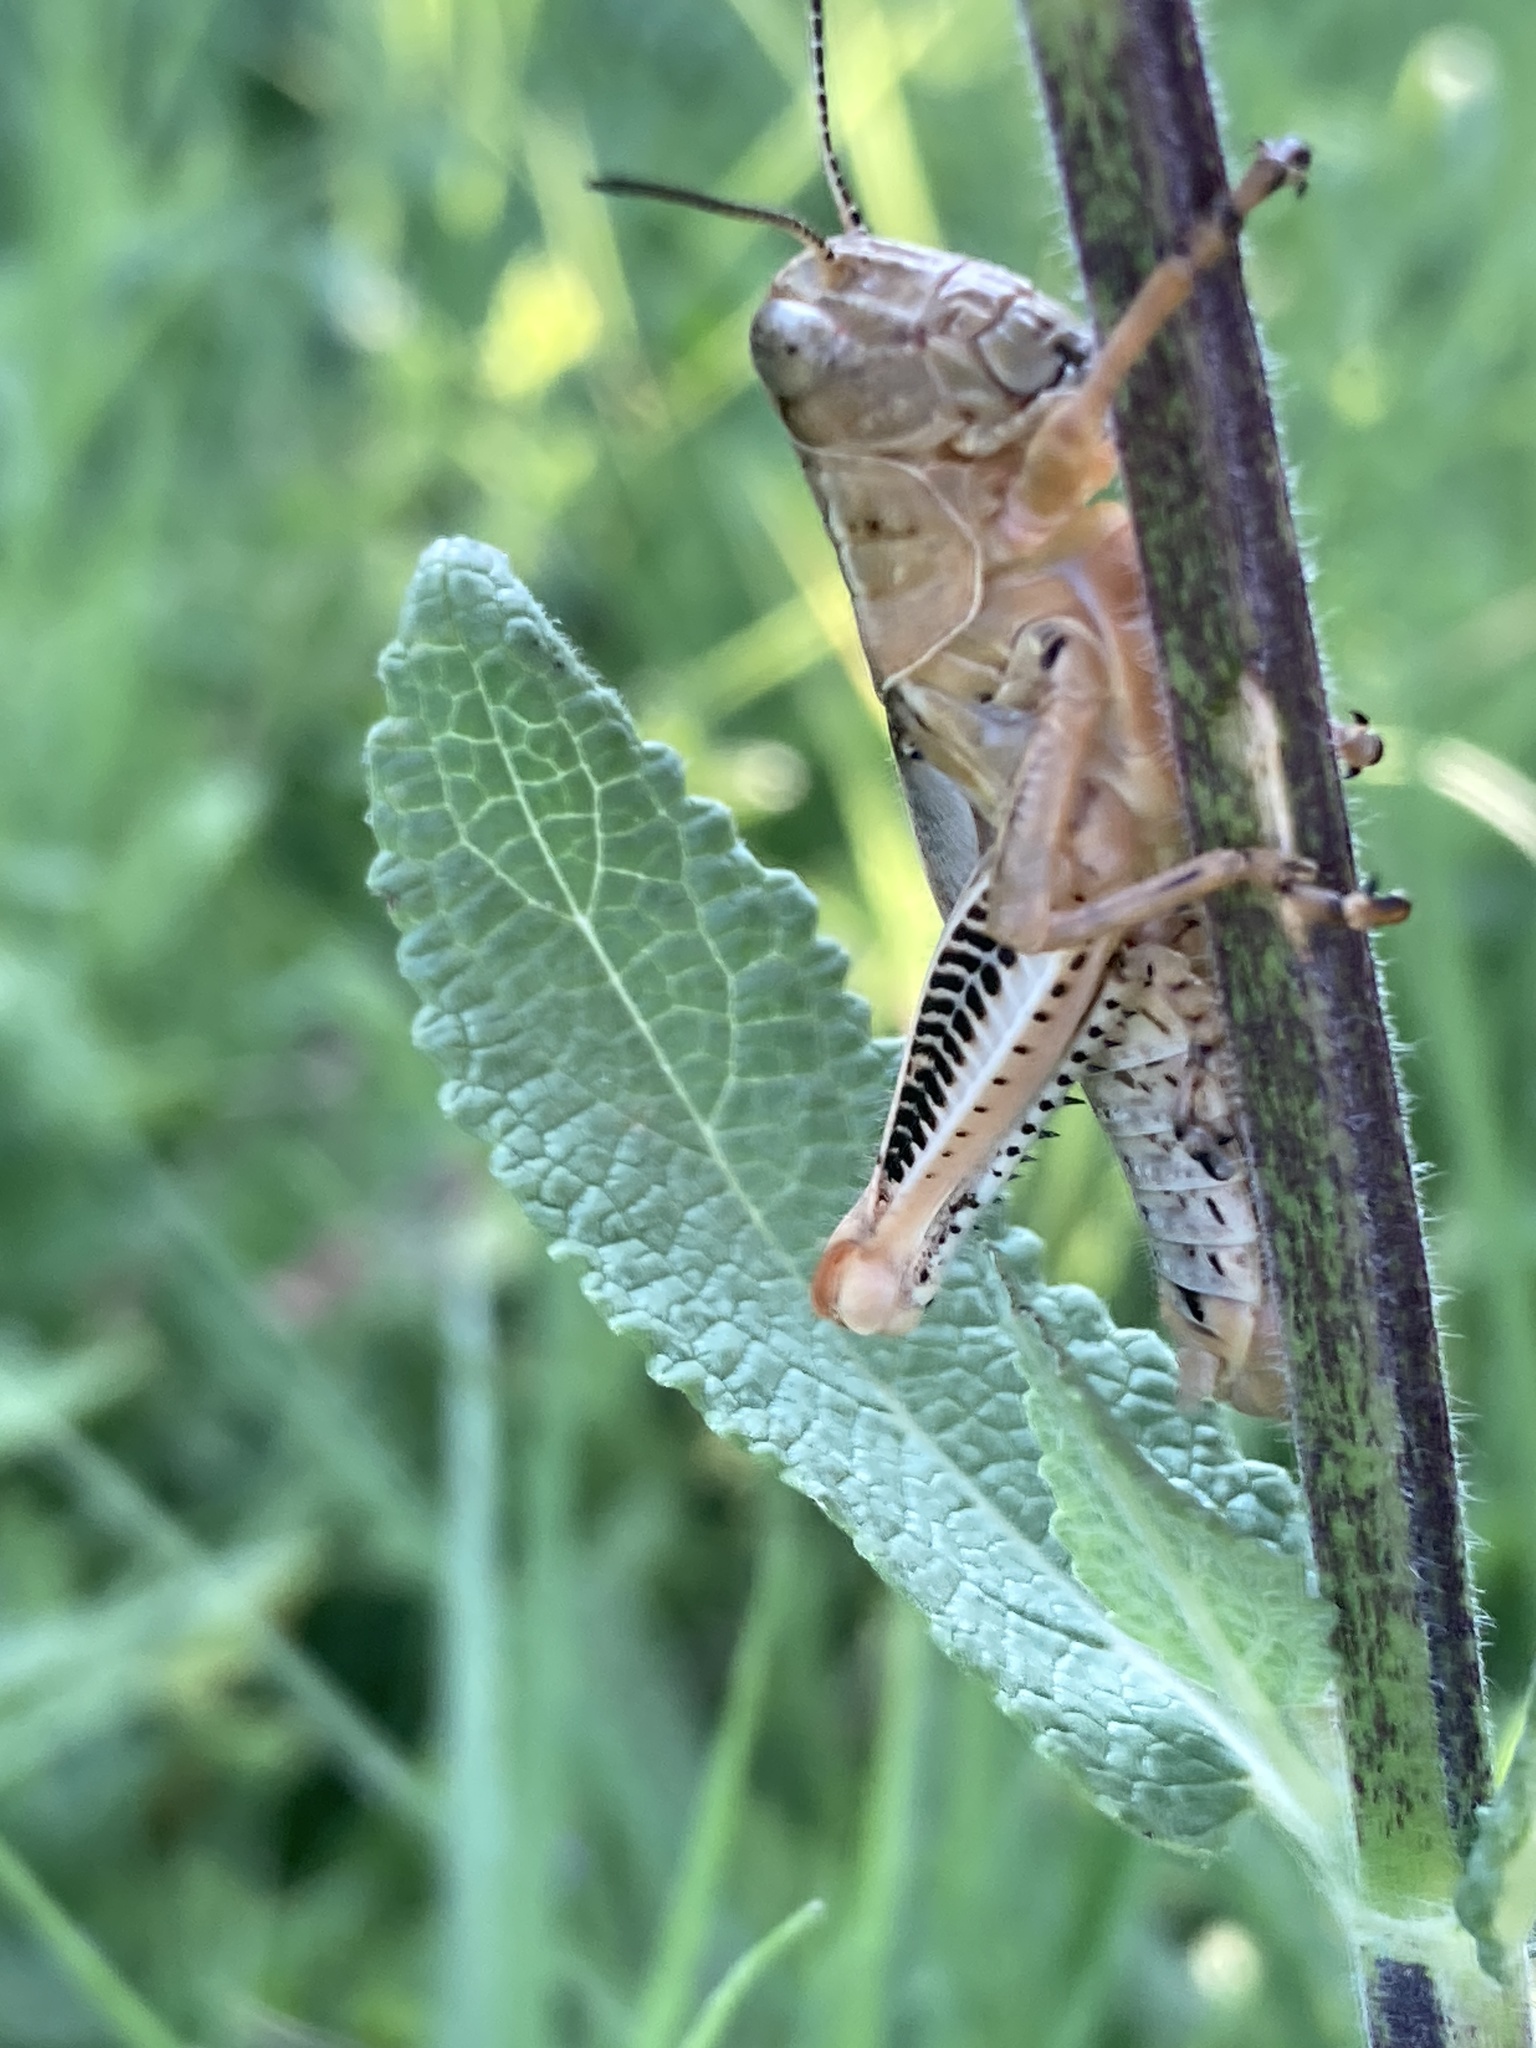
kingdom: Animalia
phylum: Arthropoda
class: Insecta
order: Orthoptera
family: Acrididae
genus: Melanoplus
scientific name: Melanoplus differentialis
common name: Differential grasshopper
